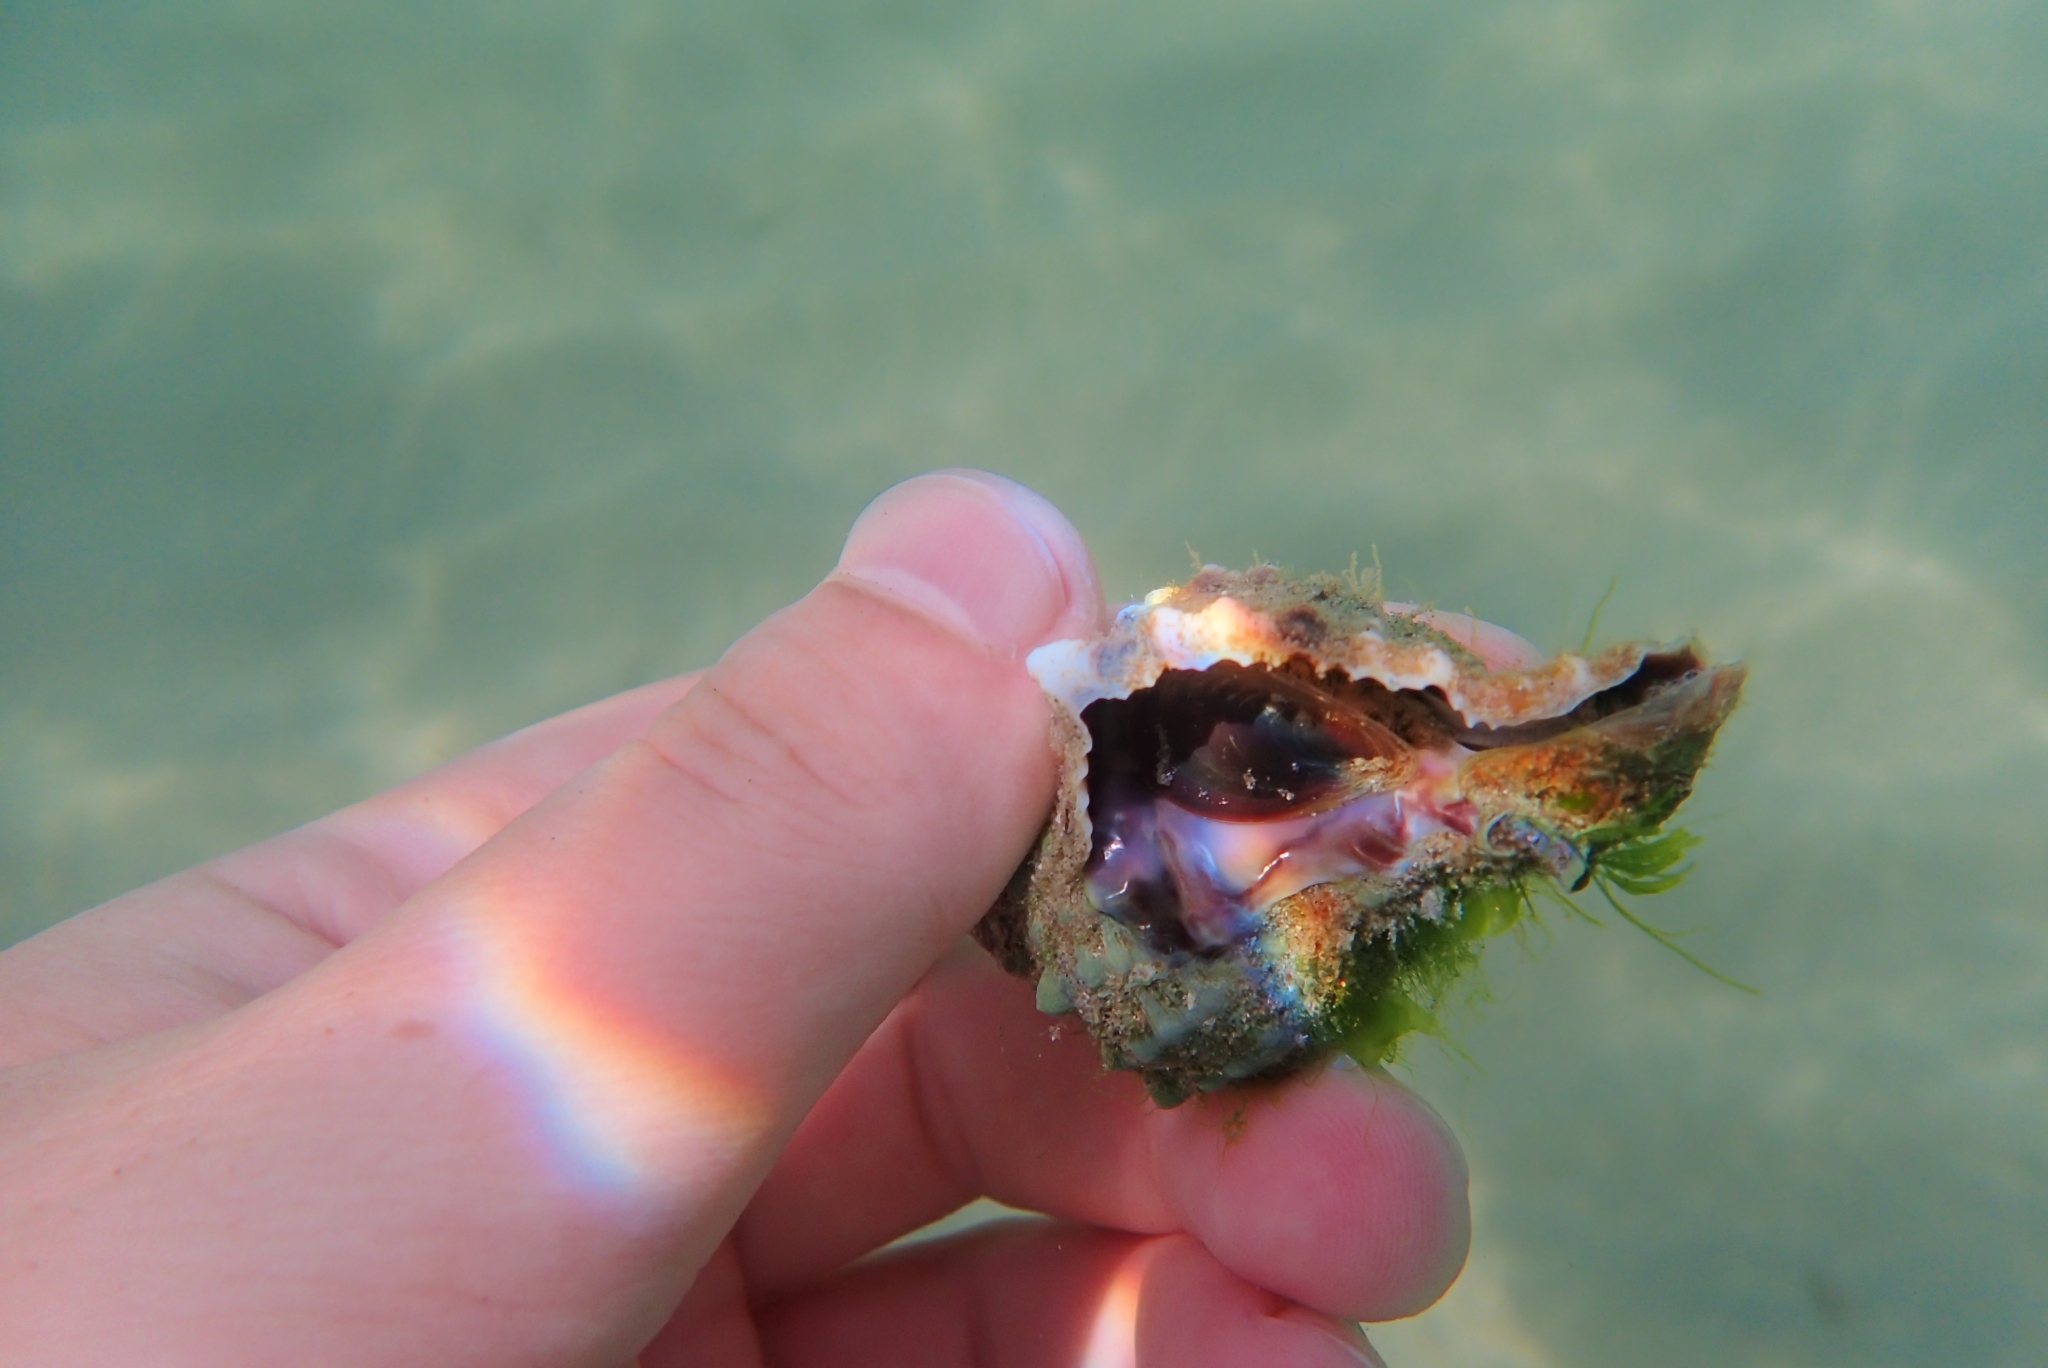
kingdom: Animalia
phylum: Mollusca
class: Gastropoda
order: Neogastropoda
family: Muricidae
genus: Hexaplex
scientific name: Hexaplex trunculus
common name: Banded dye-murex
